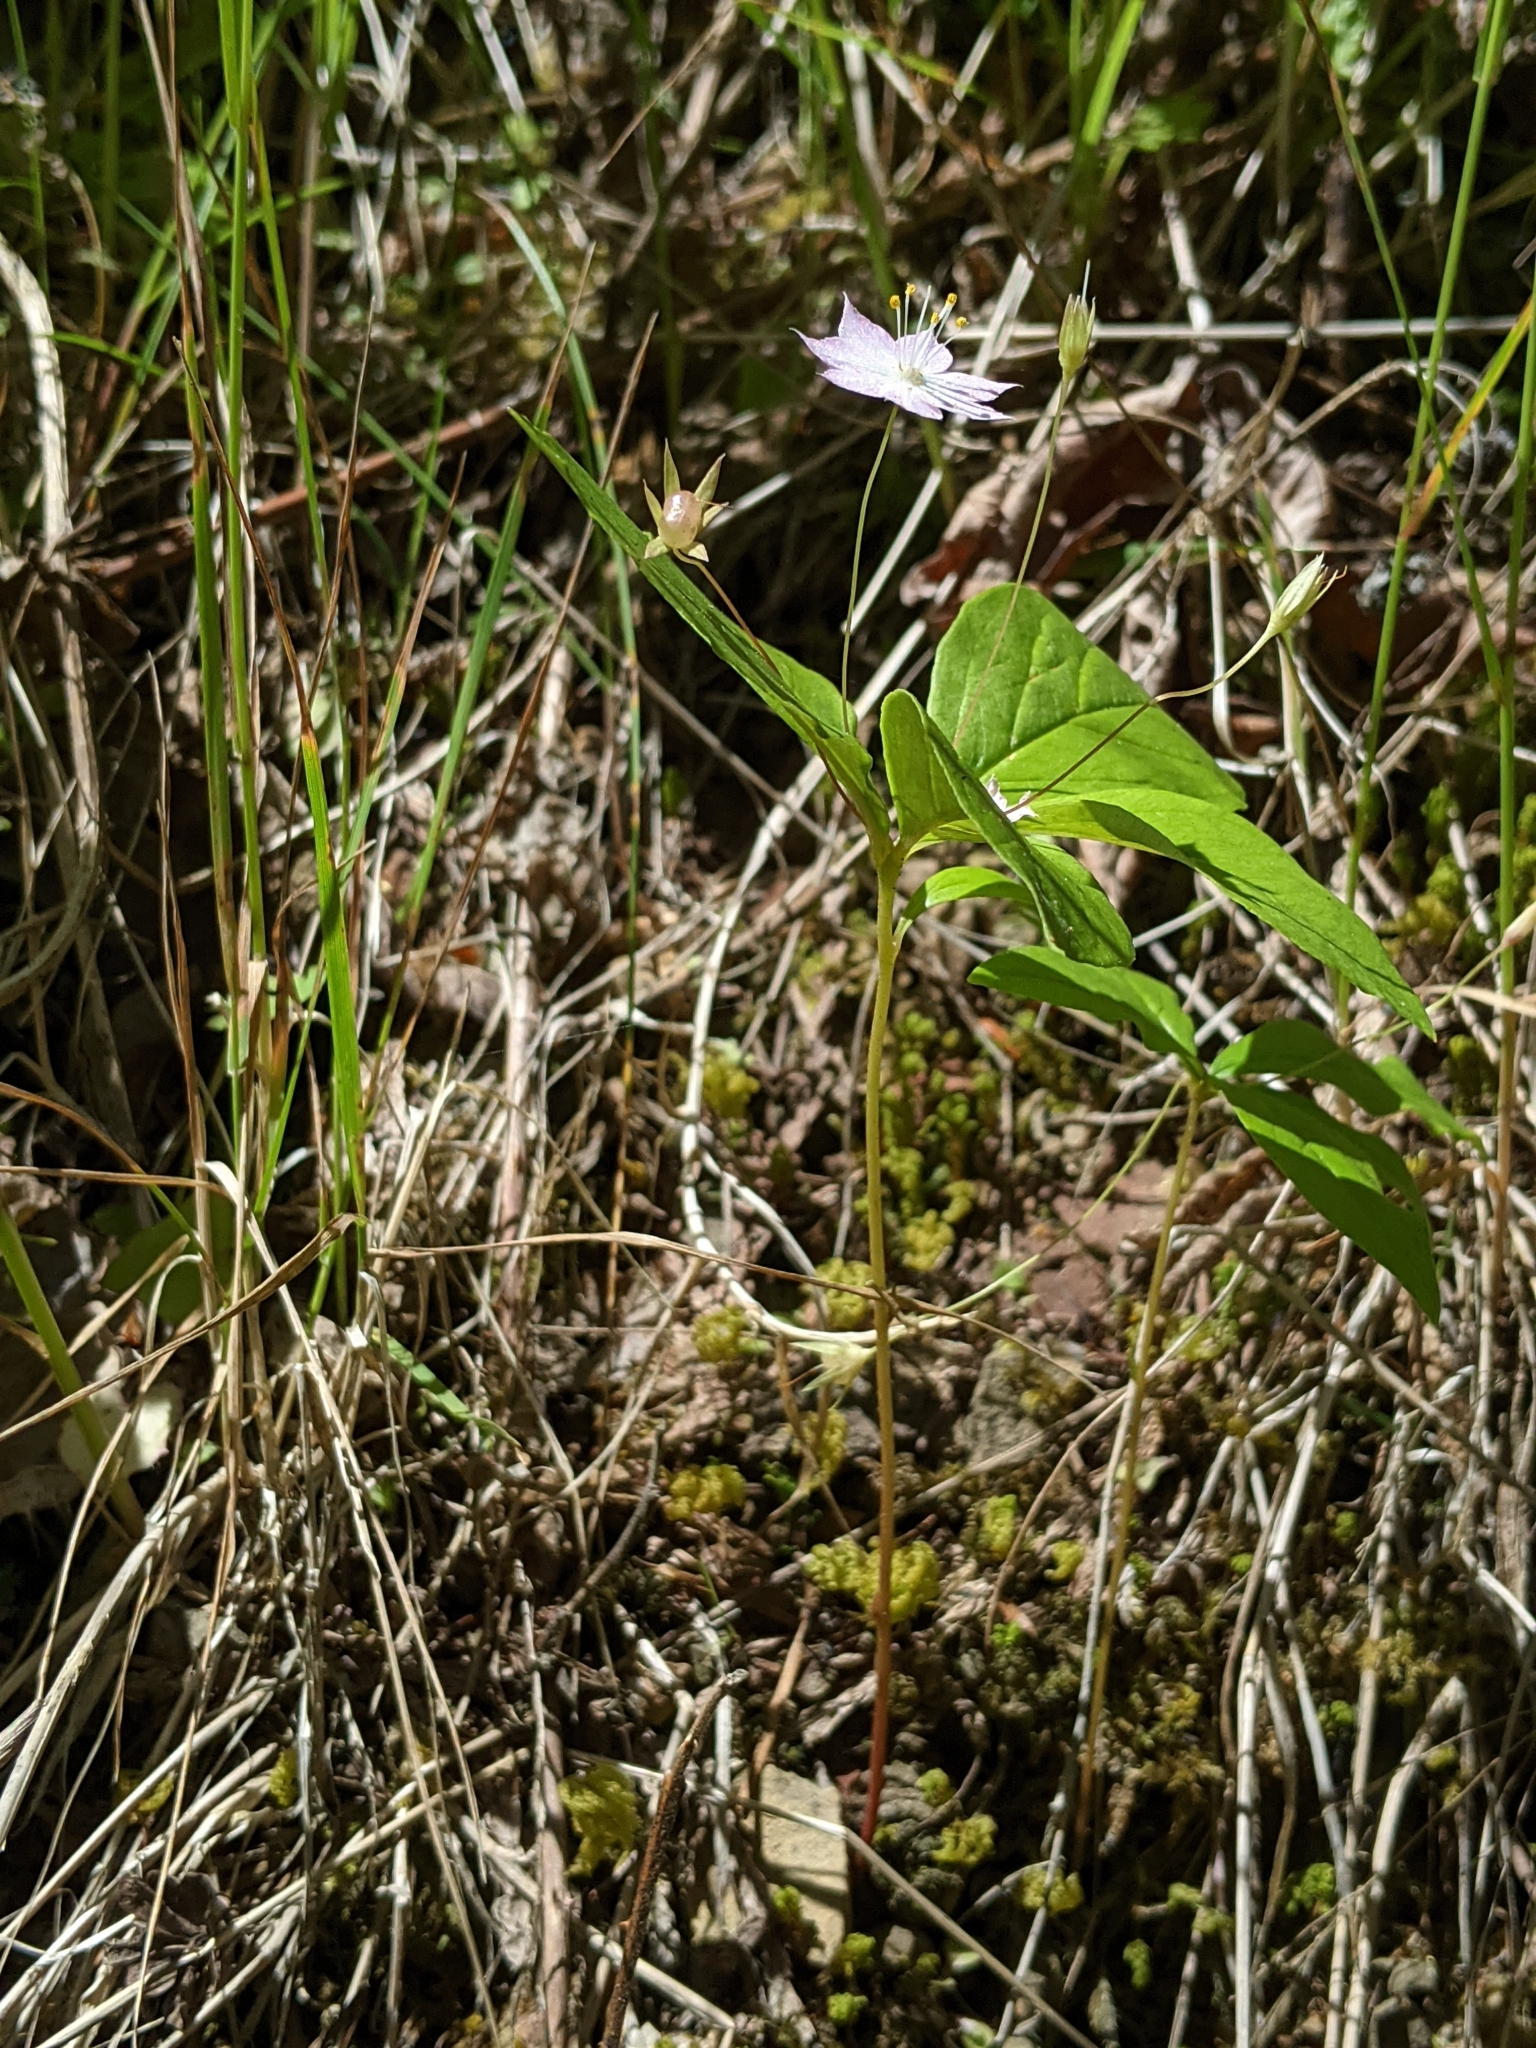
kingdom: Plantae
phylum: Tracheophyta
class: Magnoliopsida
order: Ericales
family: Primulaceae
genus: Lysimachia
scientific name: Lysimachia latifolia
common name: Pacific starflower
